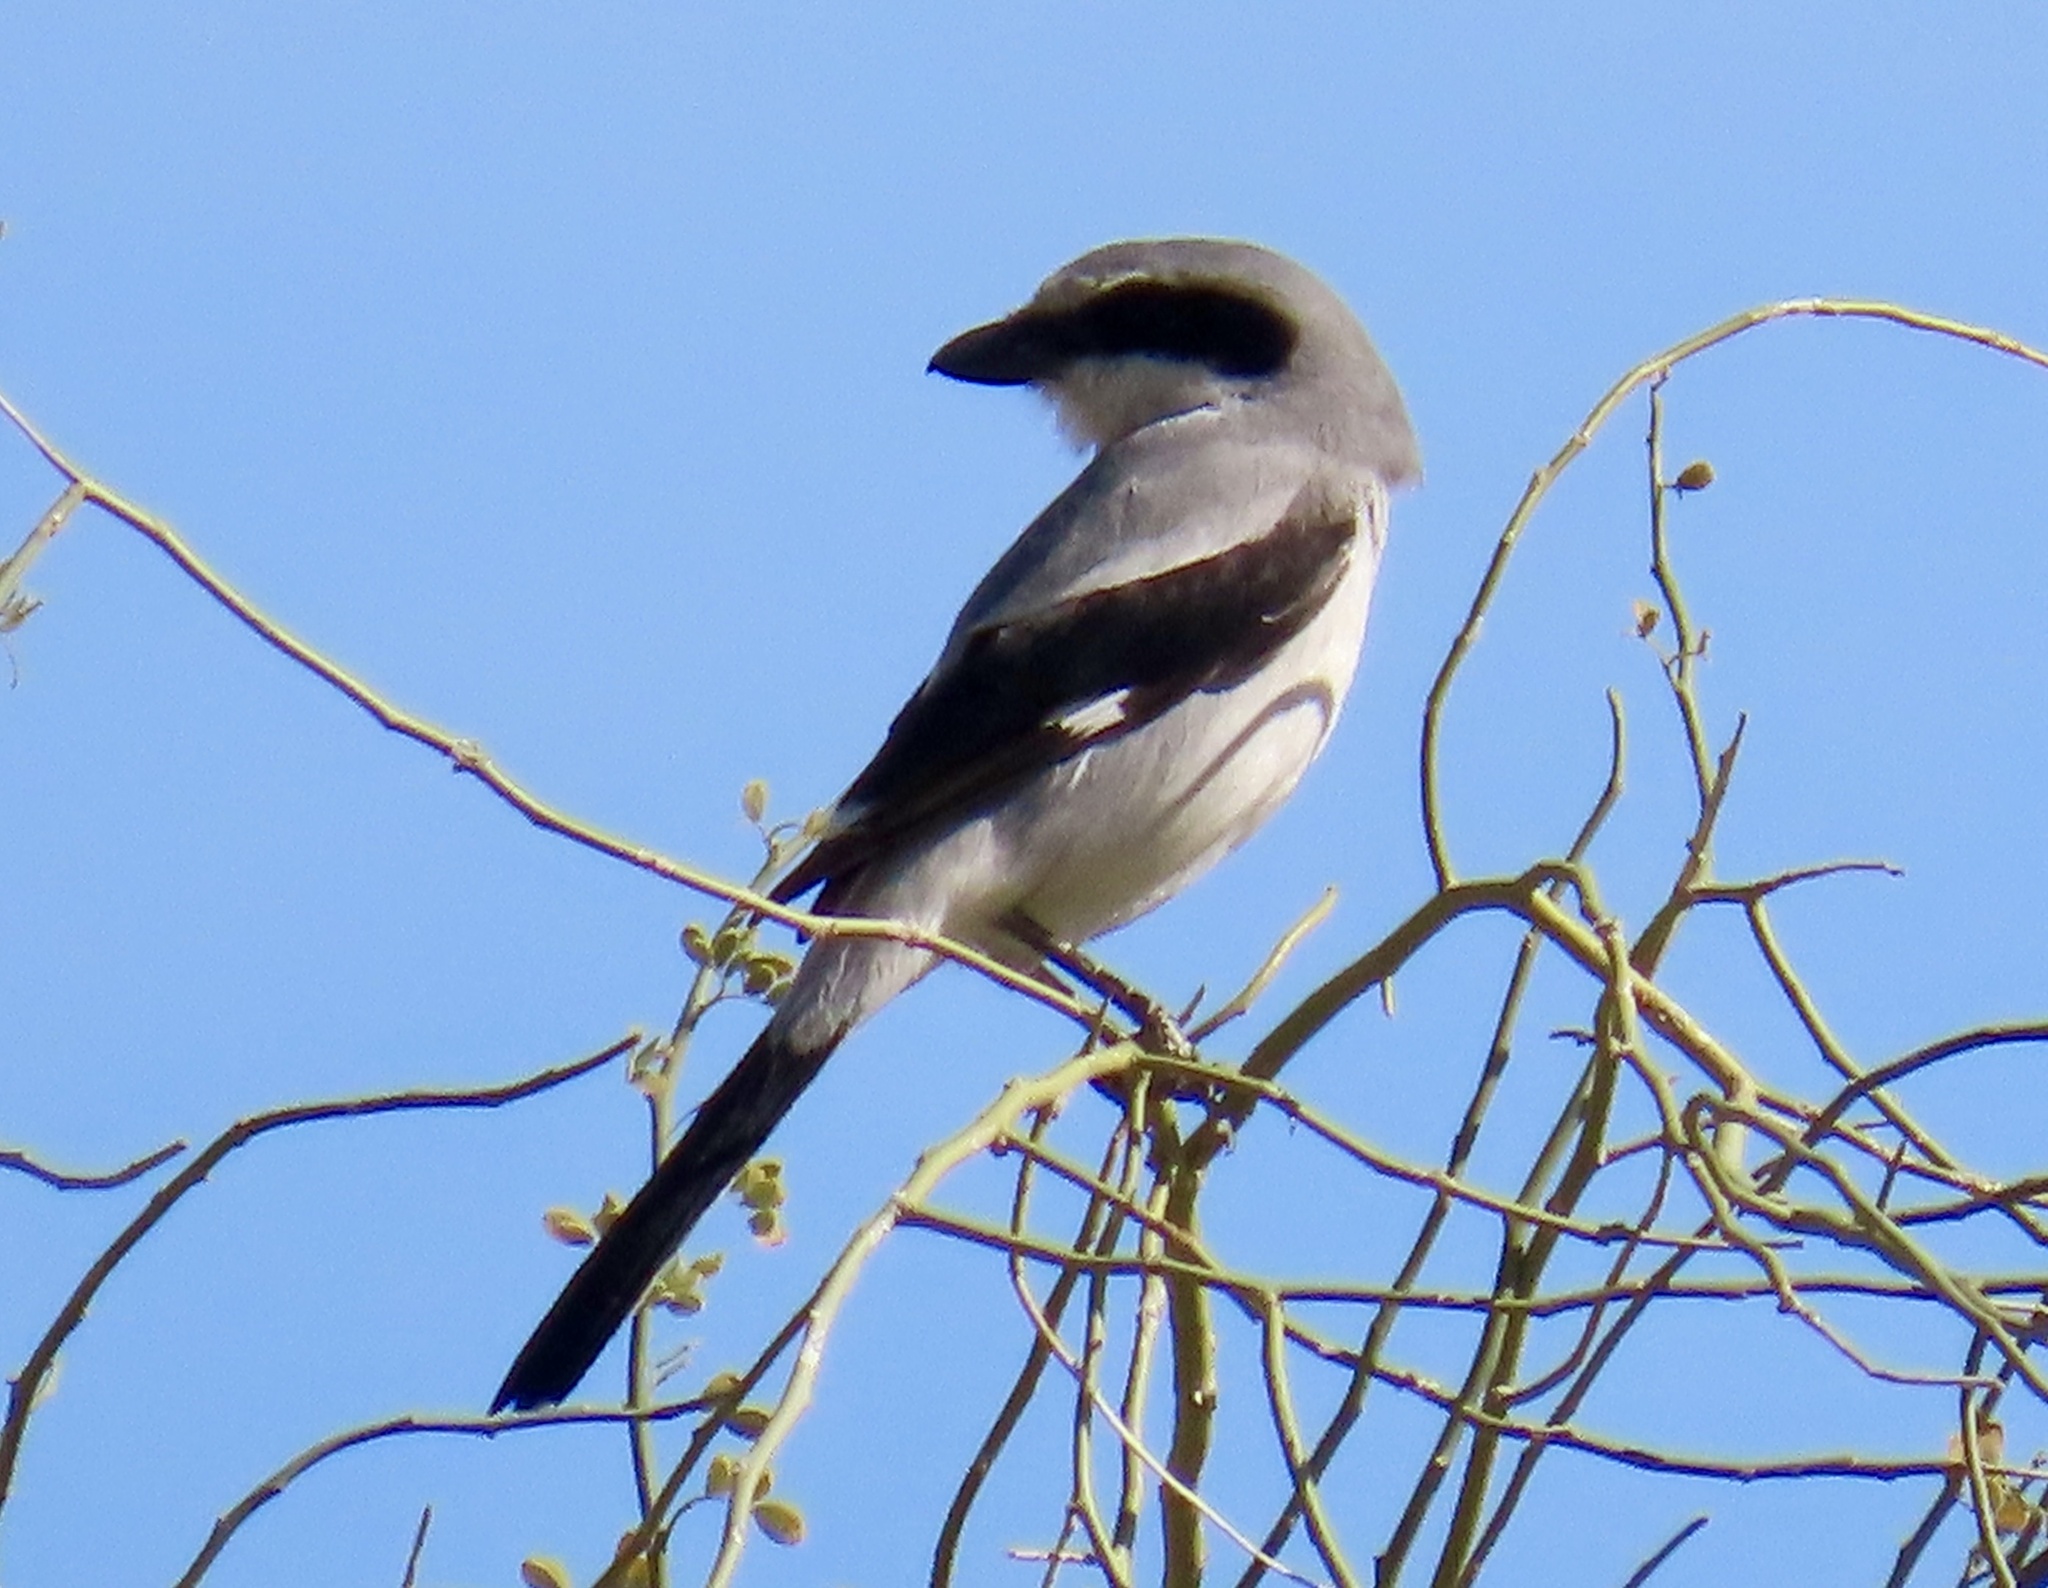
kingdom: Animalia
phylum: Chordata
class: Aves
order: Passeriformes
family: Laniidae
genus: Lanius
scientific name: Lanius ludovicianus
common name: Loggerhead shrike
